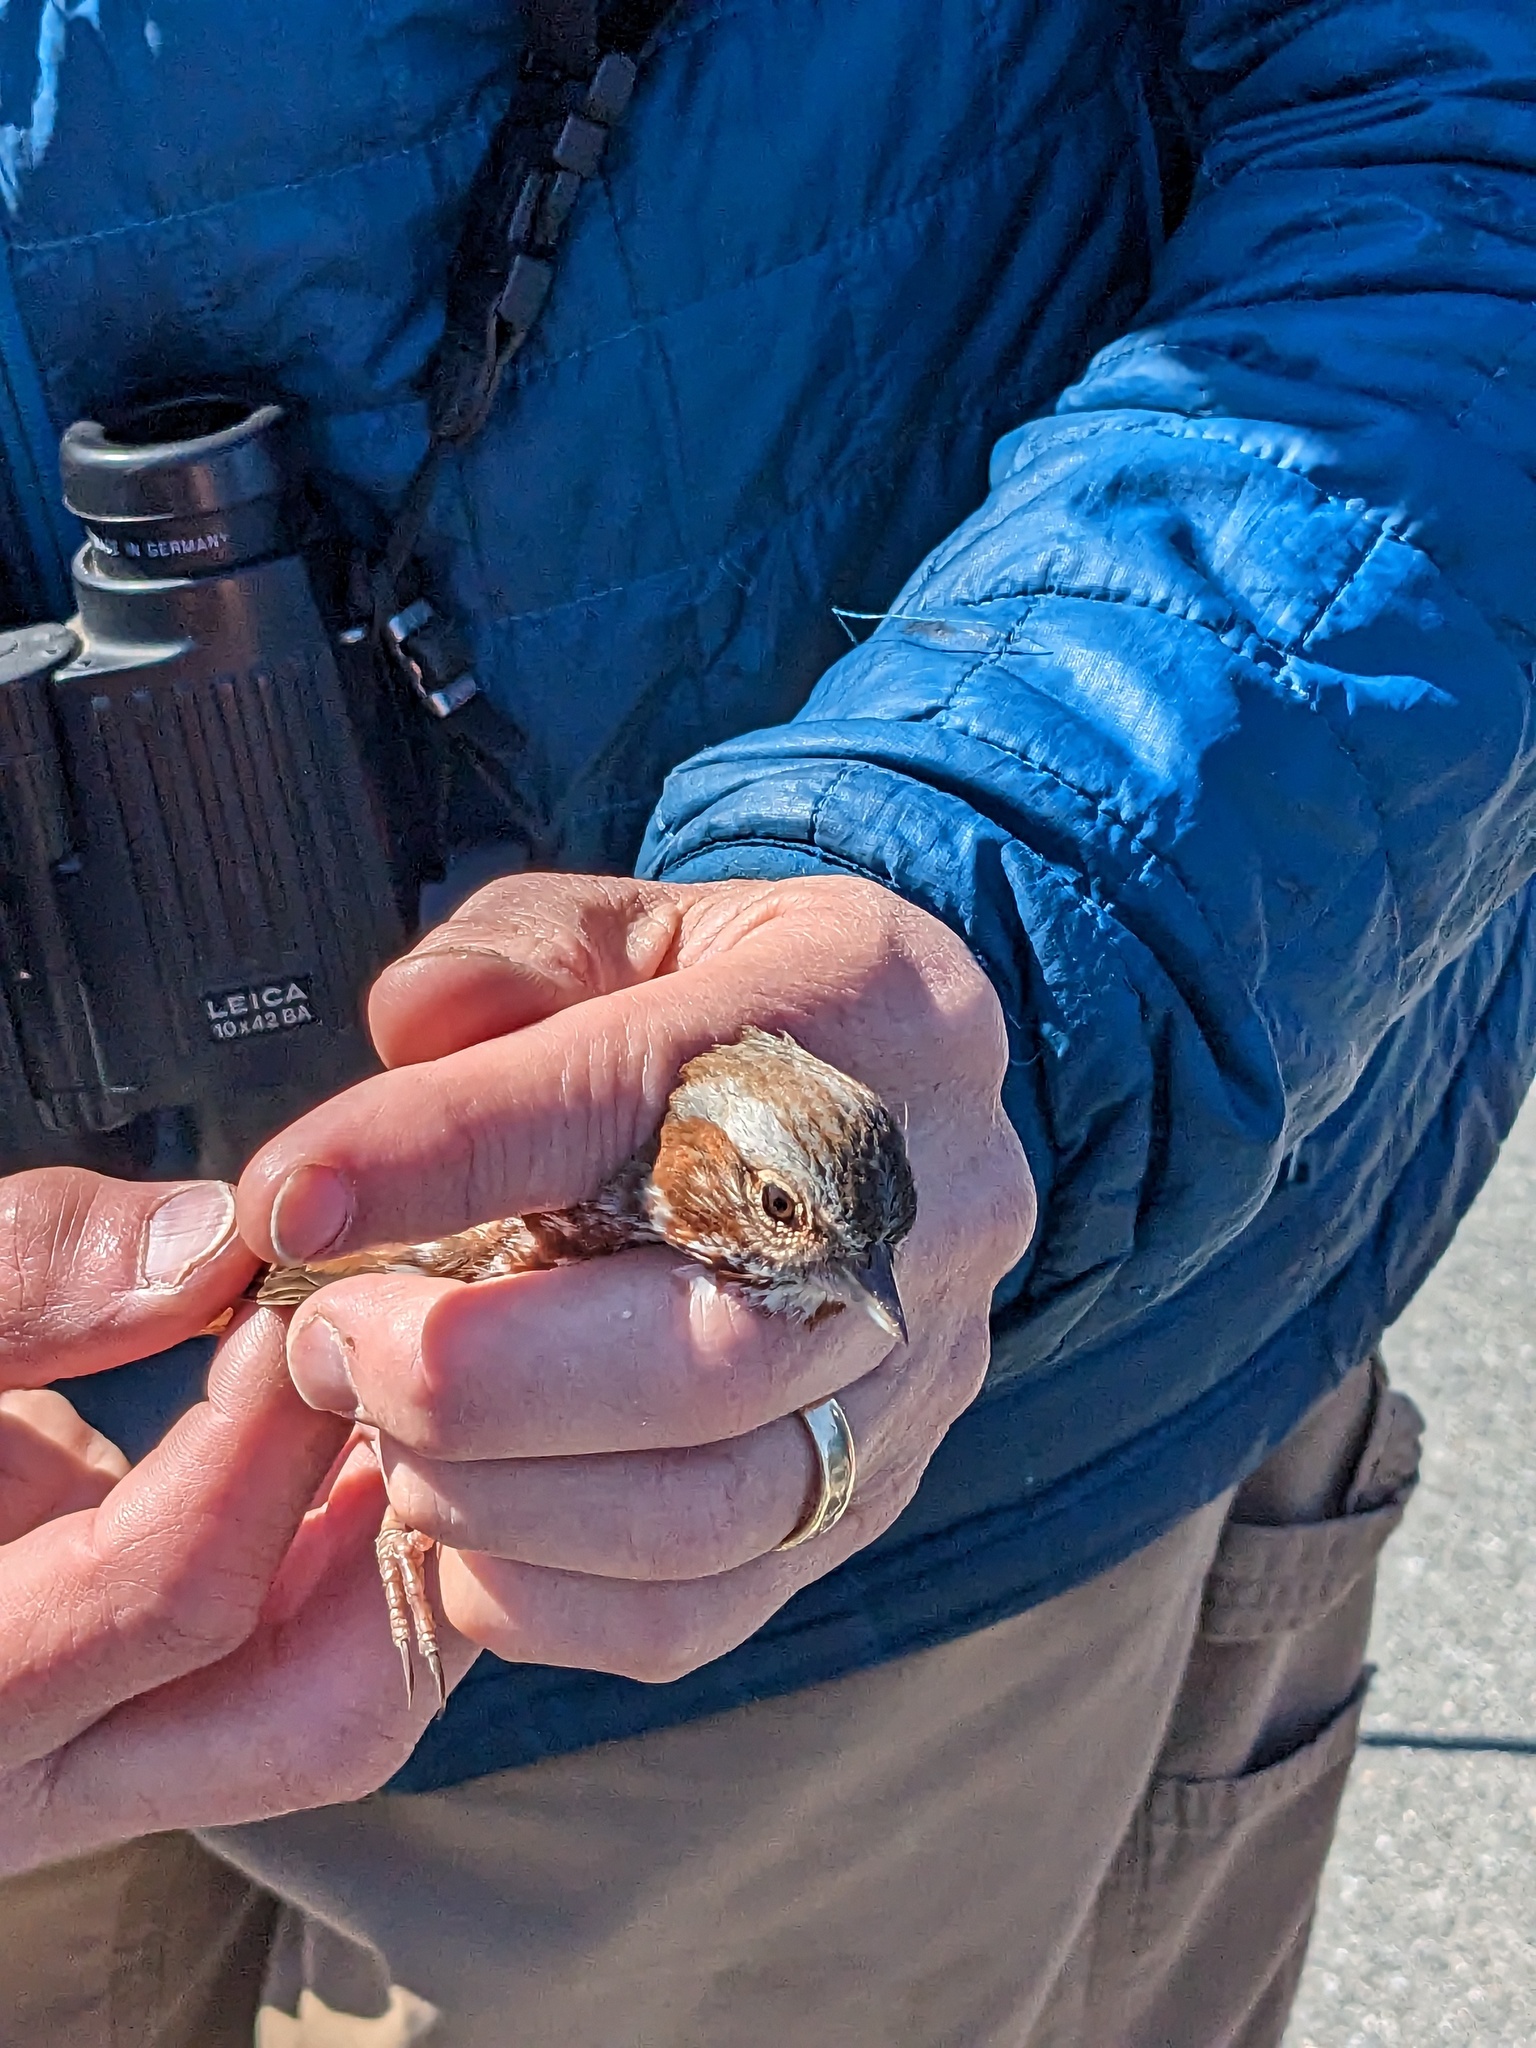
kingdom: Animalia
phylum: Chordata
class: Aves
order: Passeriformes
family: Passerellidae
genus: Passerella
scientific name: Passerella iliaca
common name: Fox sparrow
